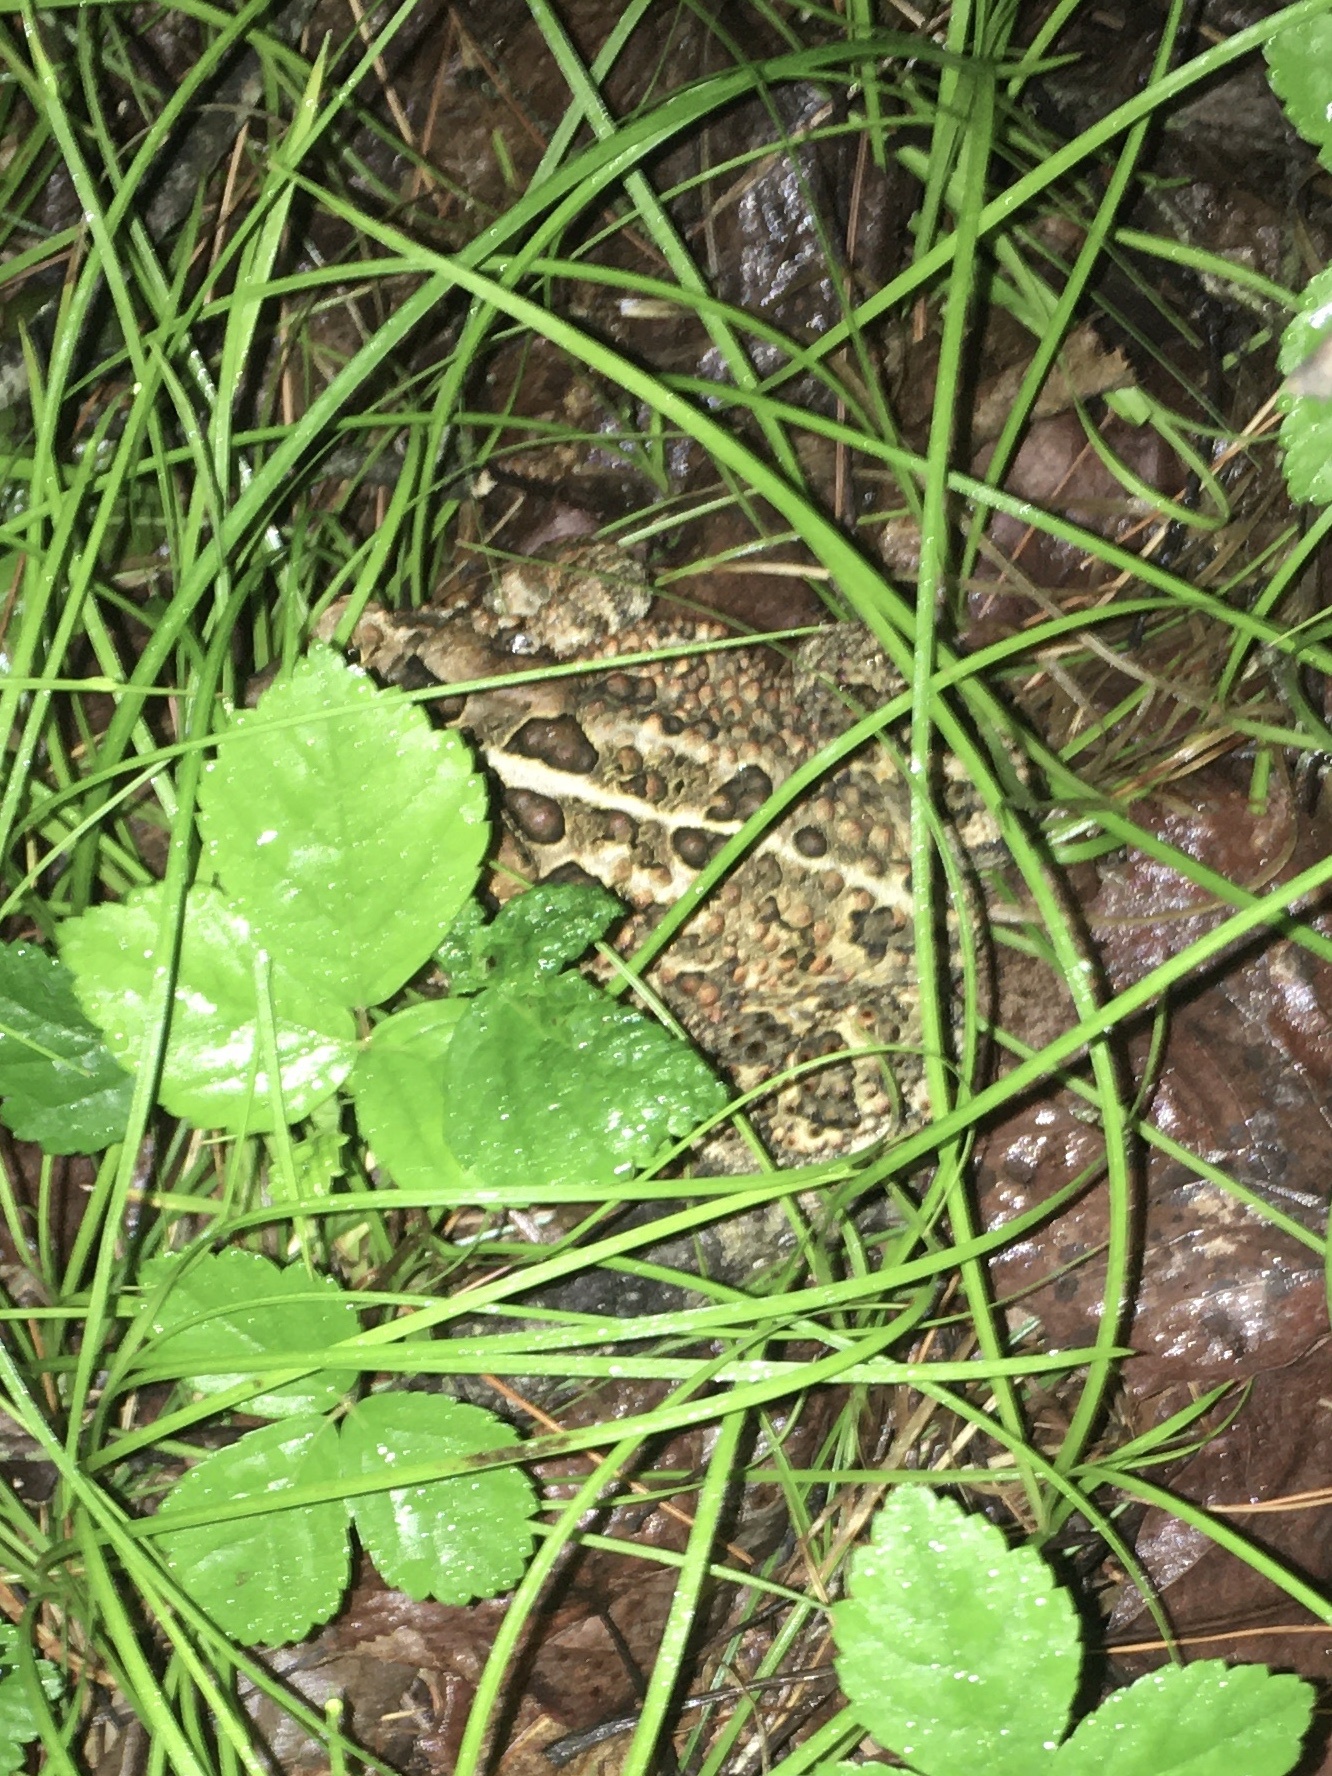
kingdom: Animalia
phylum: Chordata
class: Amphibia
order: Anura
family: Bufonidae
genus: Anaxyrus
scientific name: Anaxyrus americanus
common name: American toad
